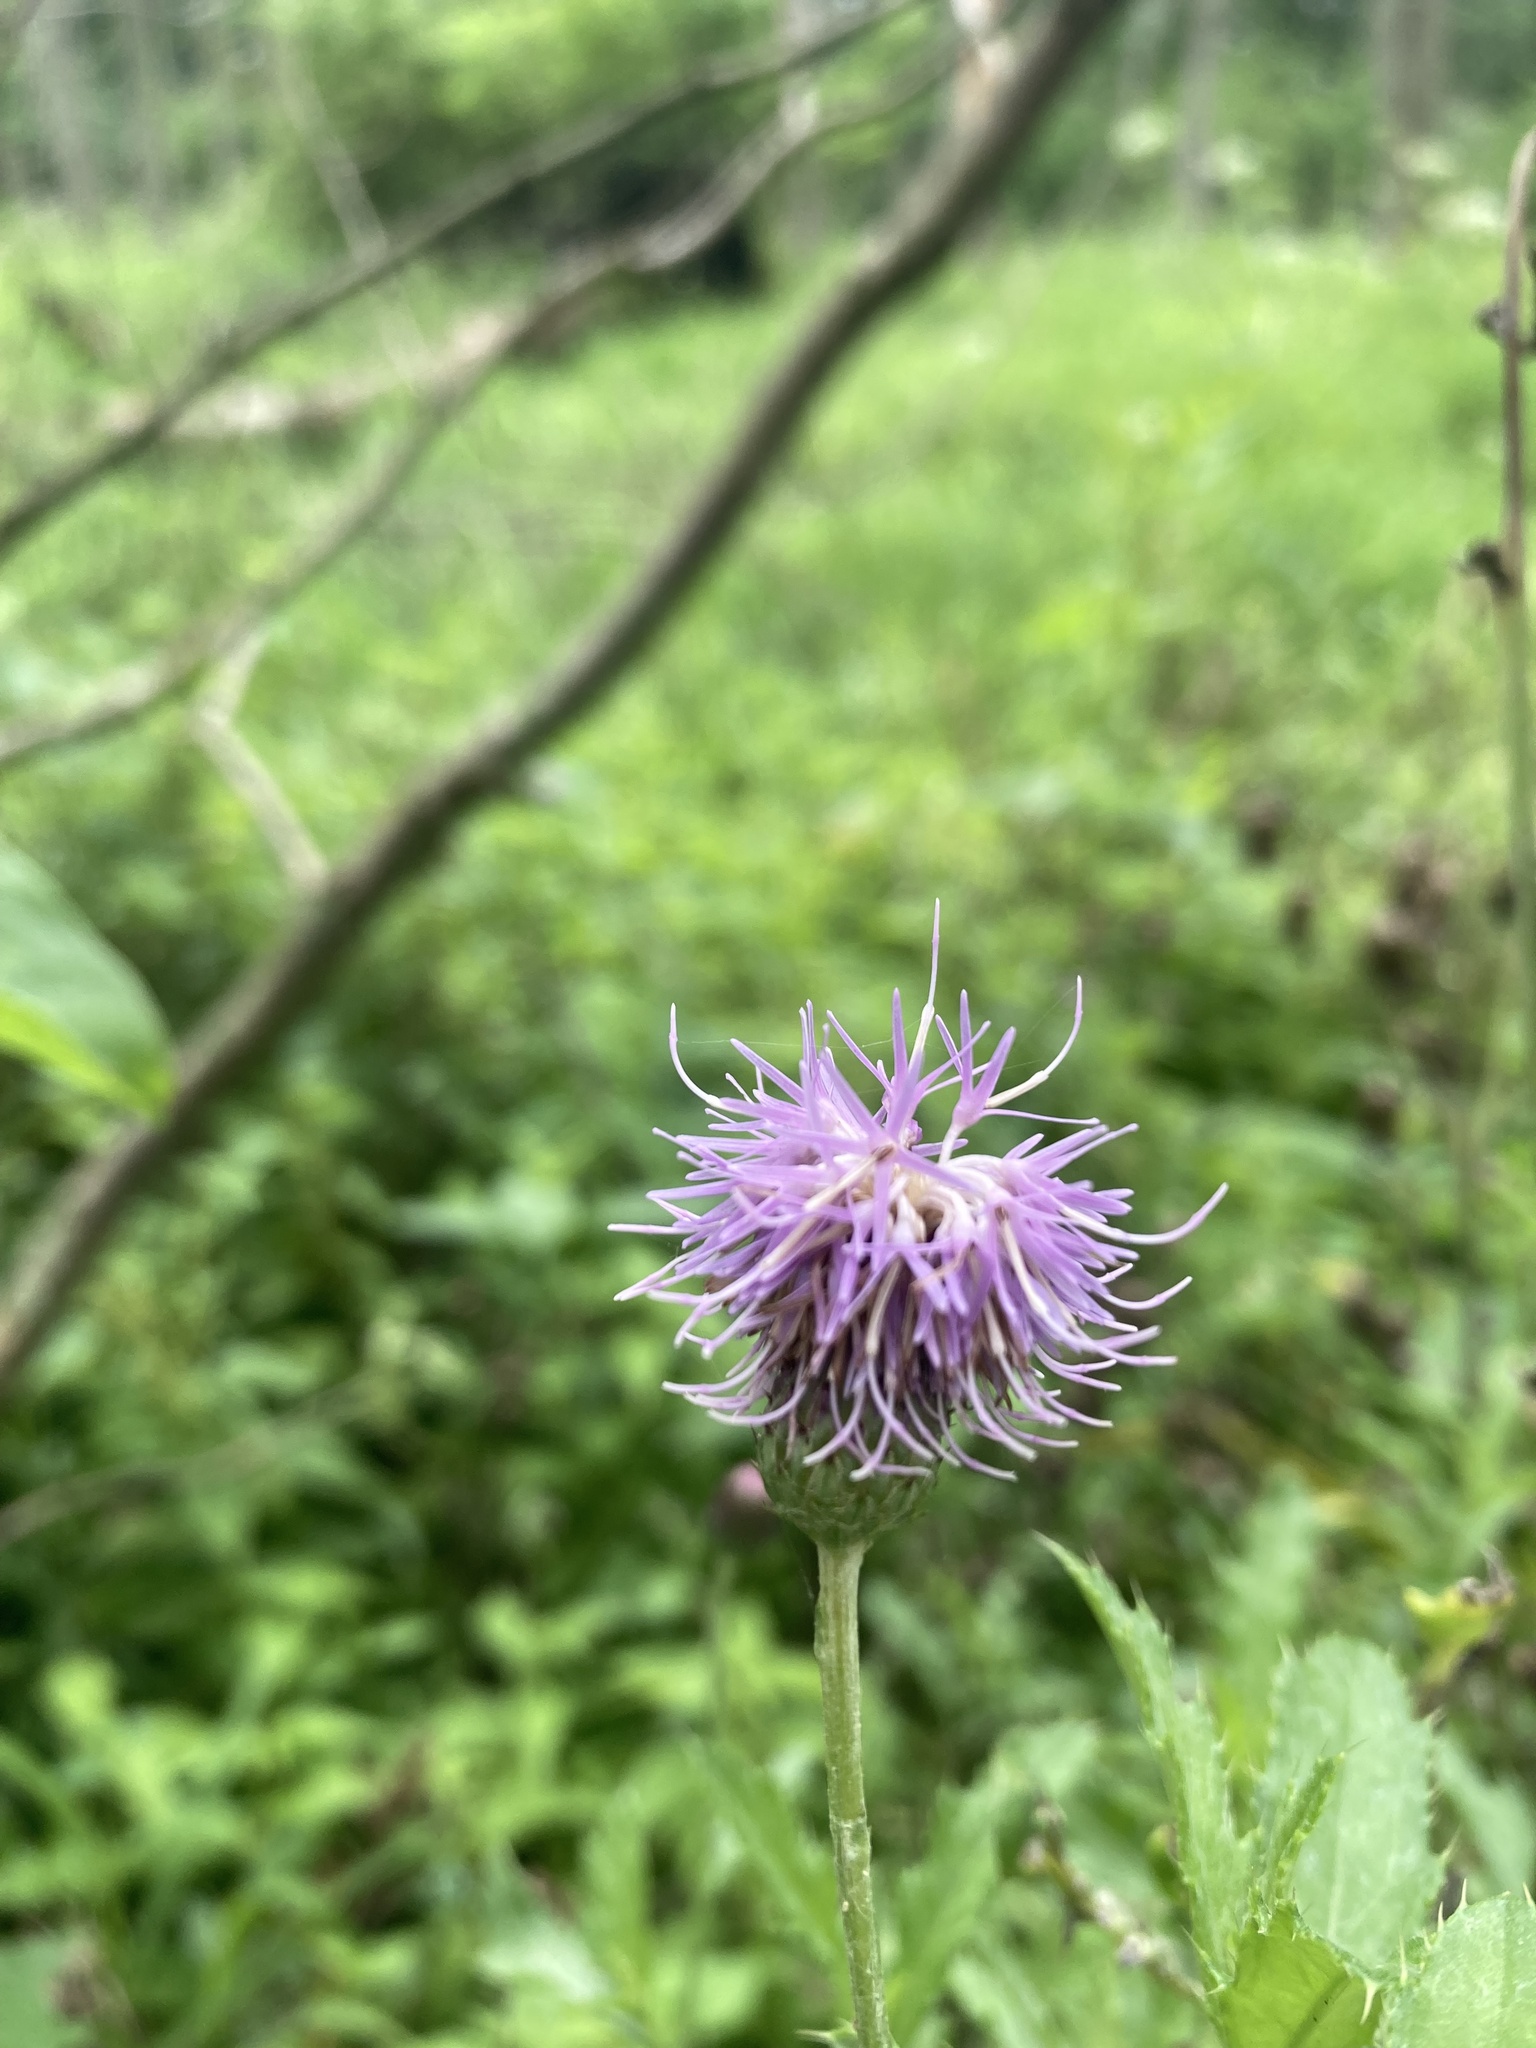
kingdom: Plantae
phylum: Tracheophyta
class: Magnoliopsida
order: Asterales
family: Asteraceae
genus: Cirsium
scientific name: Cirsium arvense
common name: Creeping thistle
